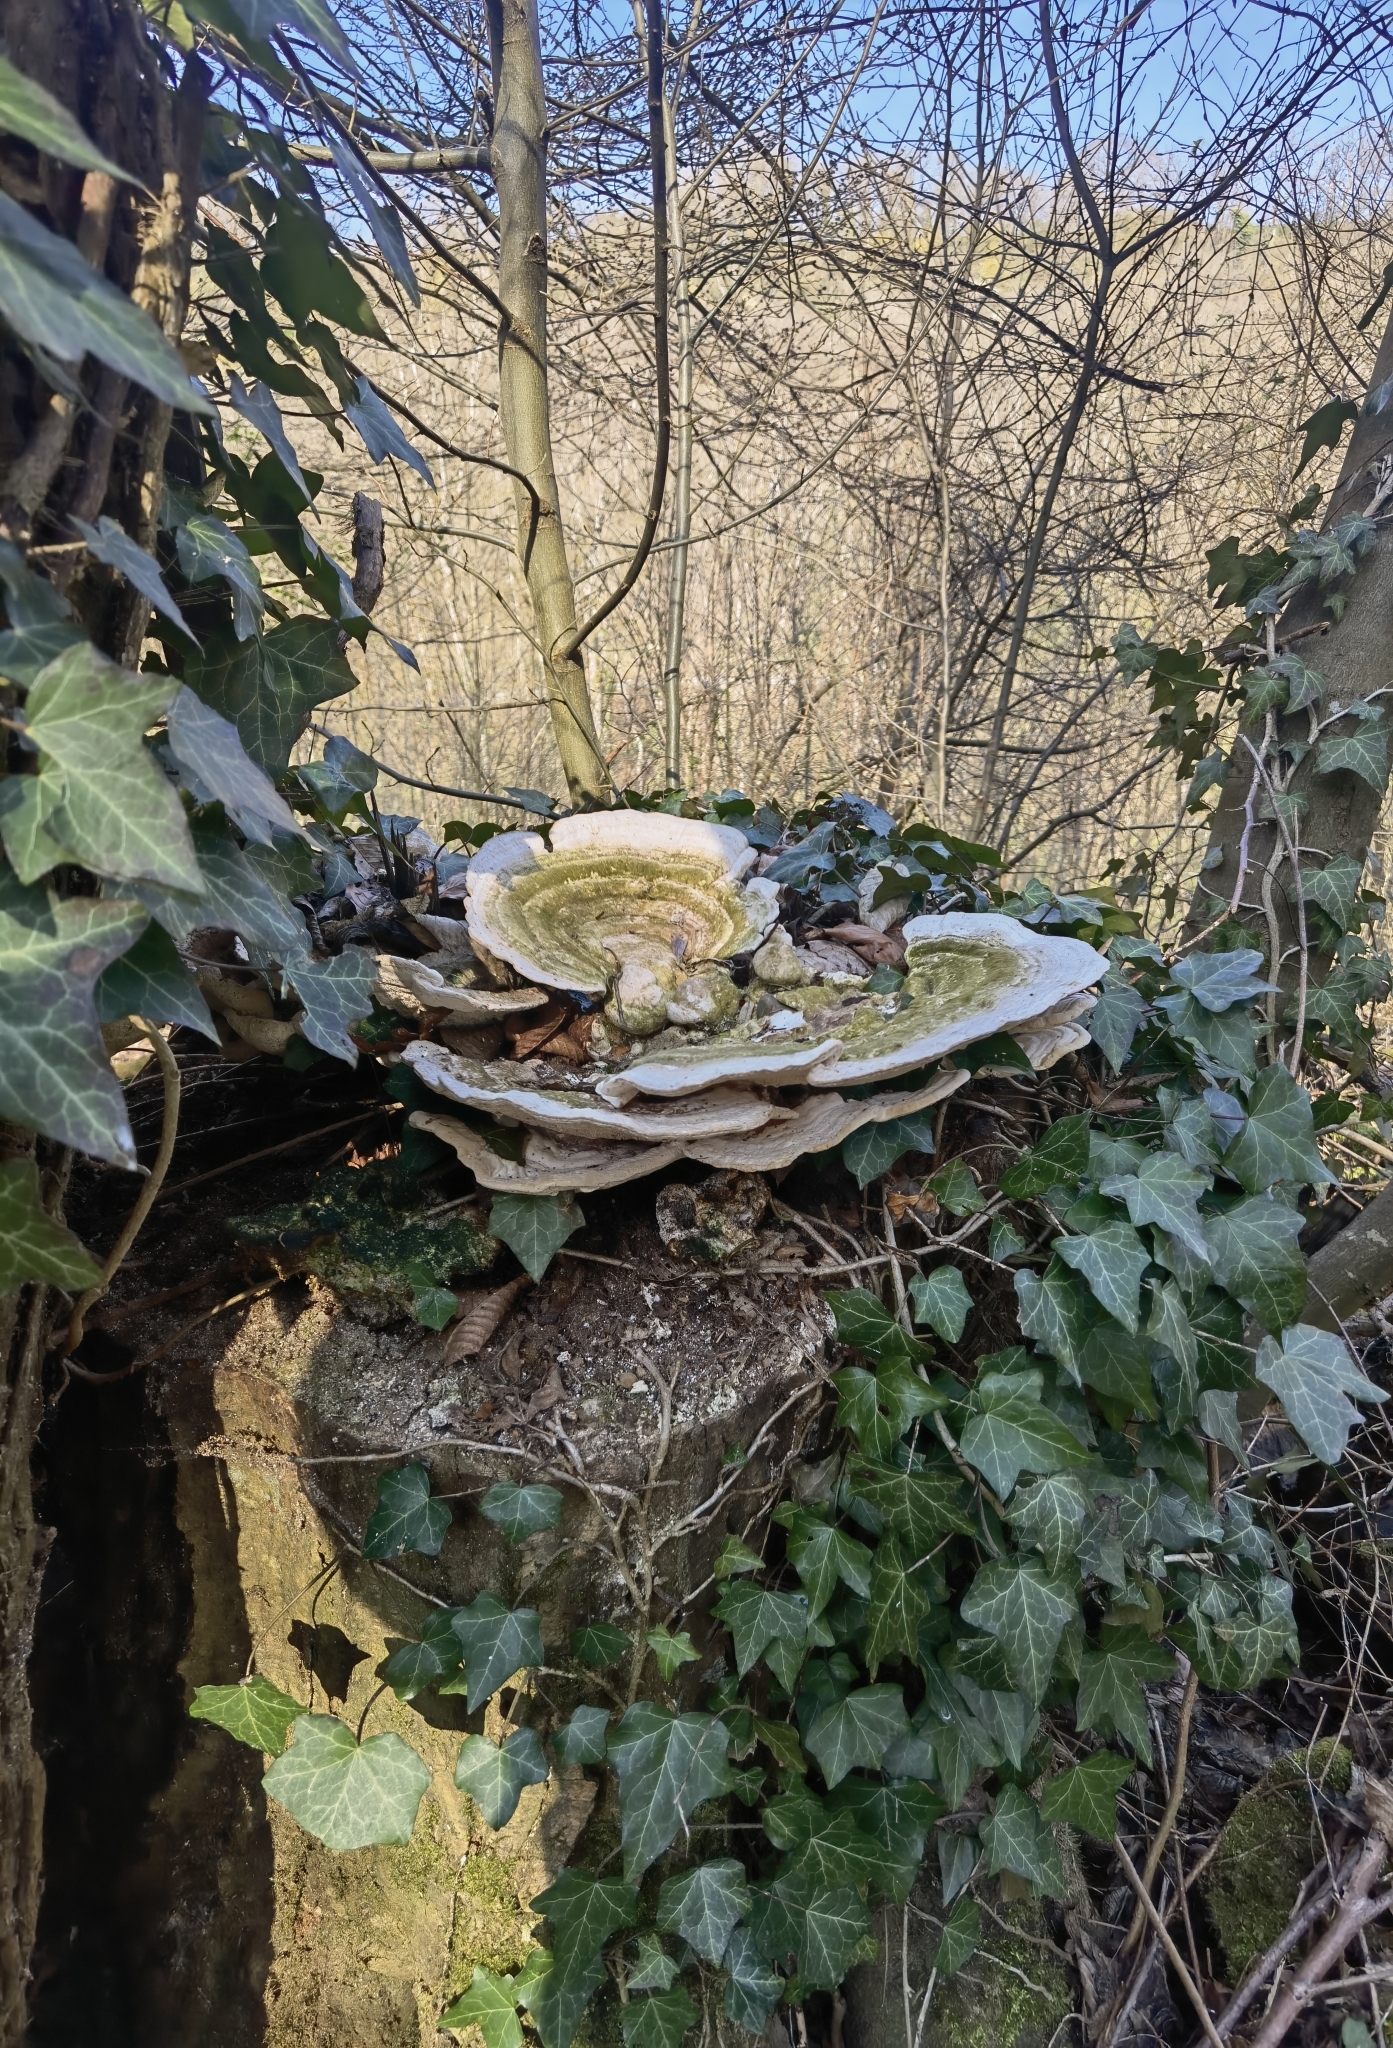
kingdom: Fungi
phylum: Basidiomycota
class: Agaricomycetes
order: Polyporales
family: Polyporaceae
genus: Trametes
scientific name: Trametes gibbosa
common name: Lumpy bracket
